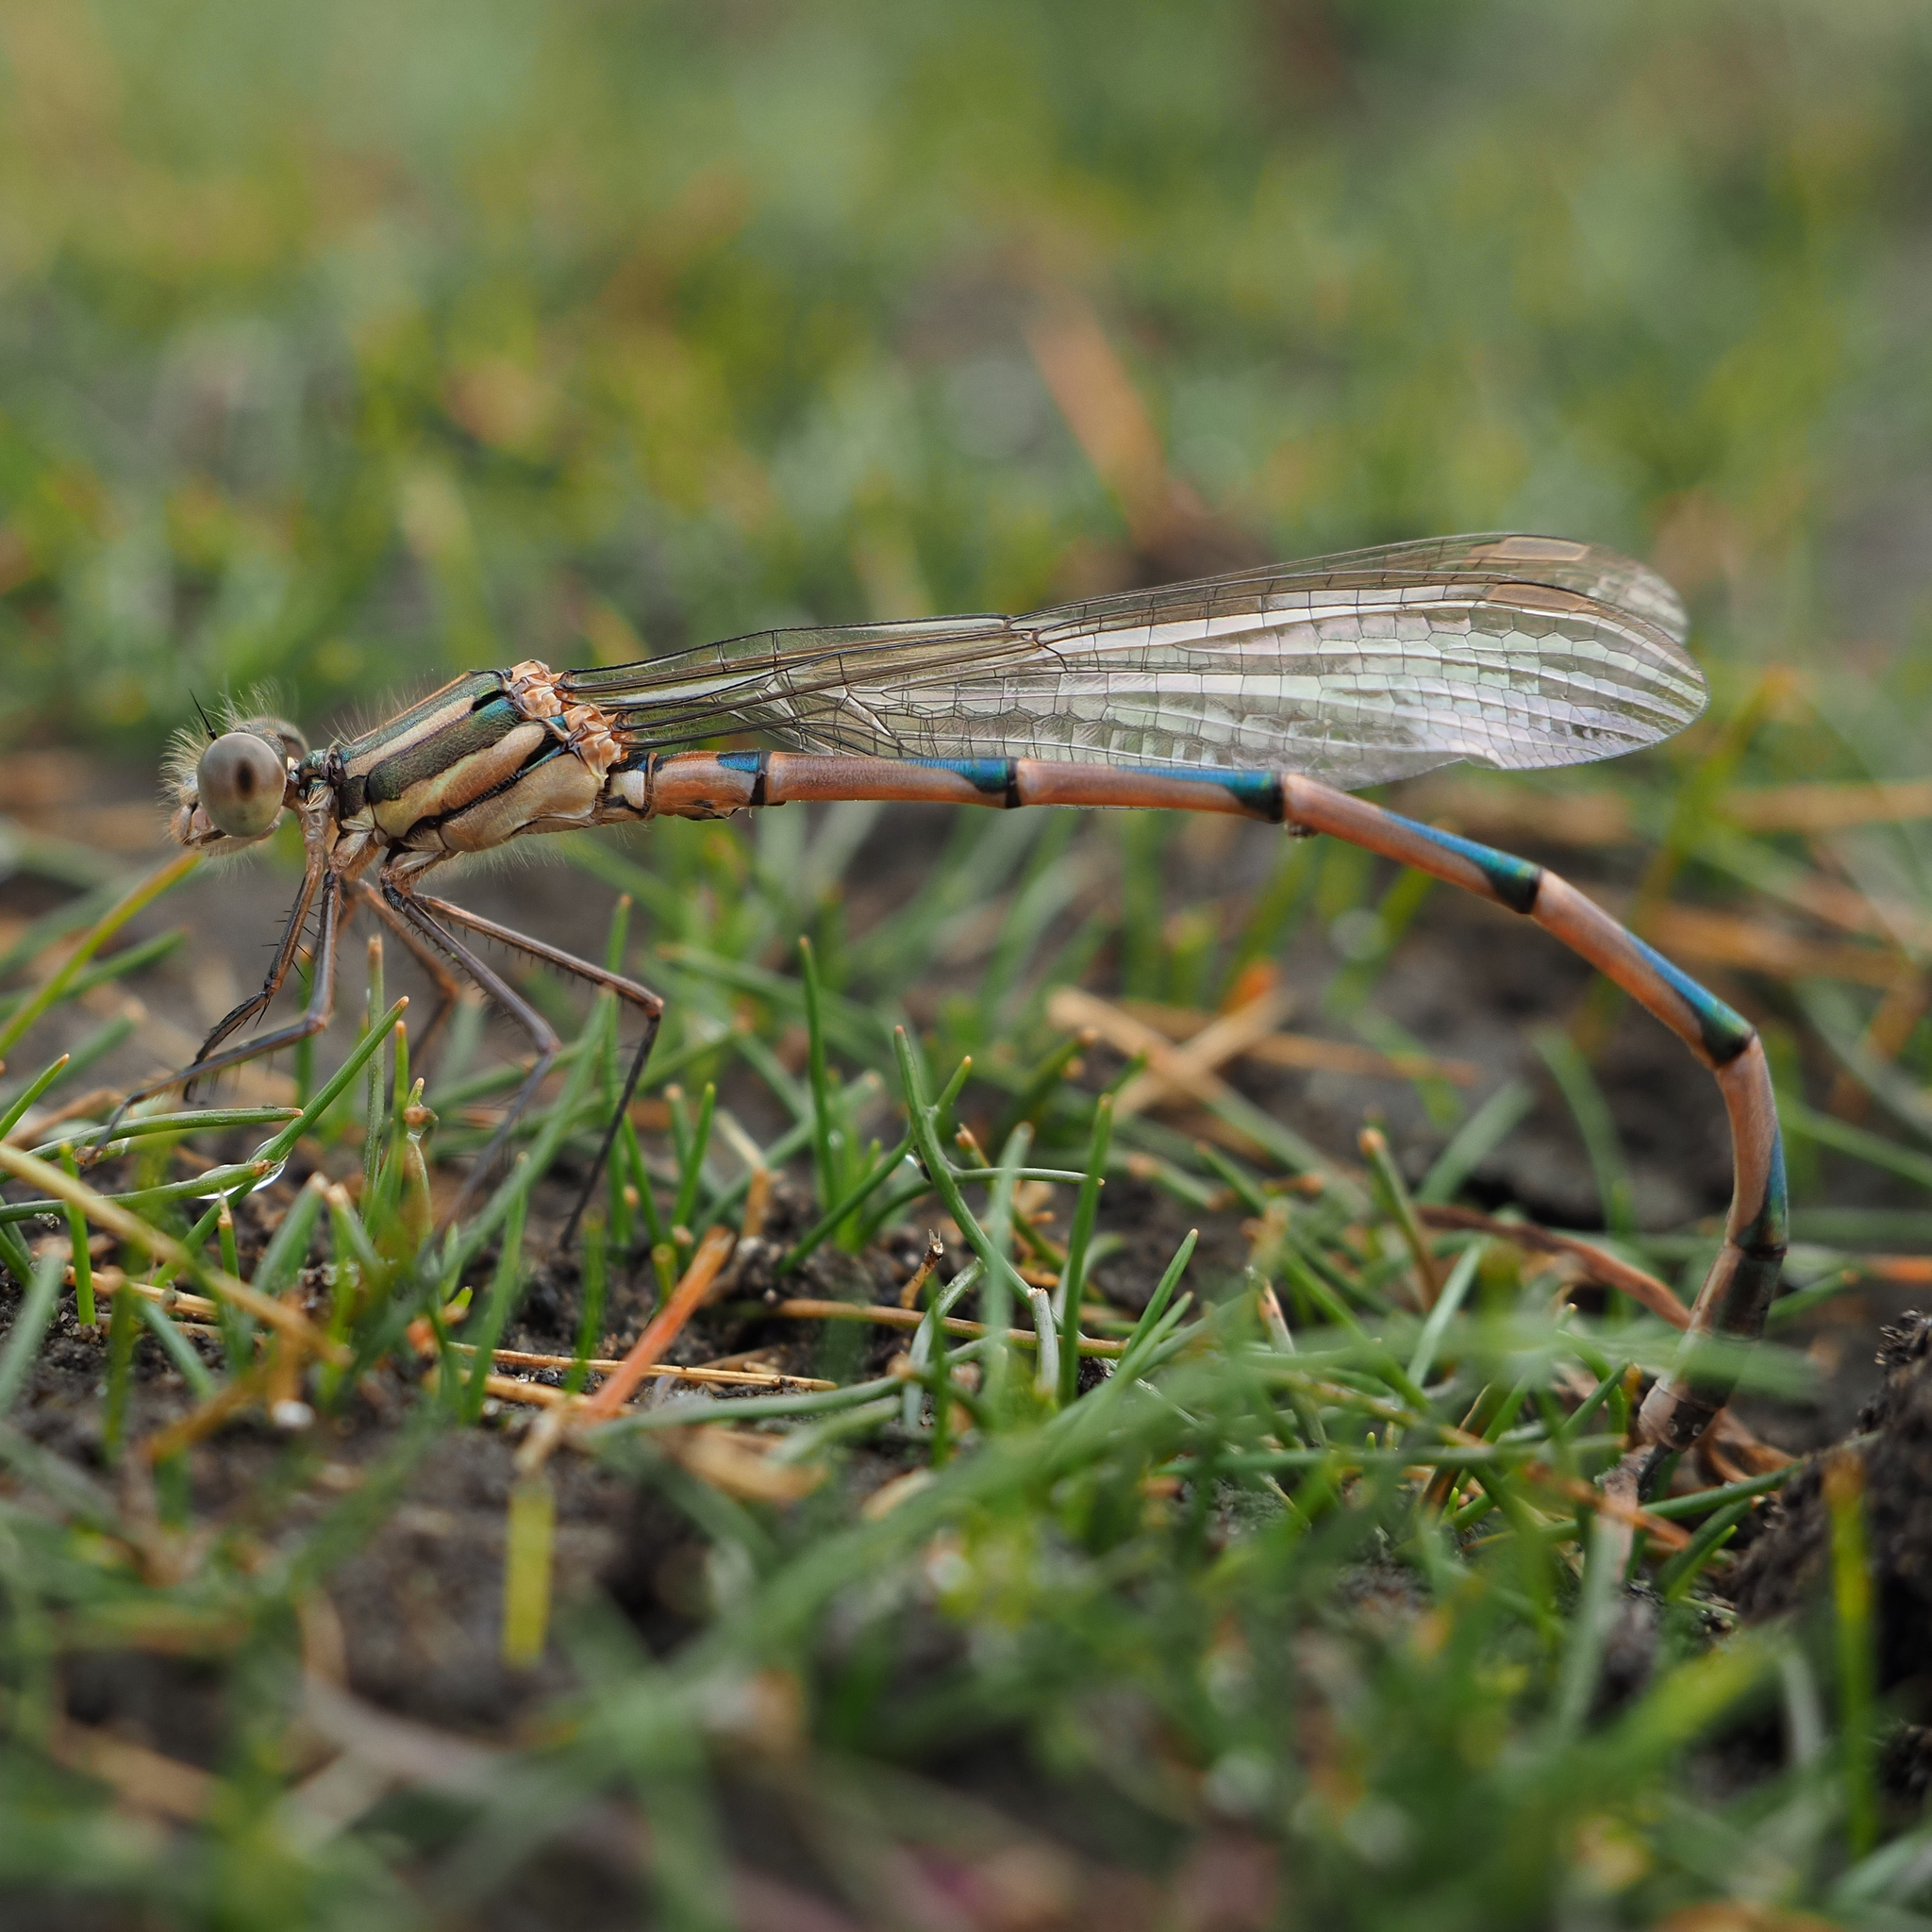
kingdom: Animalia
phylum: Arthropoda
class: Insecta
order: Odonata
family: Lestidae
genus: Austrolestes
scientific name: Austrolestes annulosus
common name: Blue ringtail
